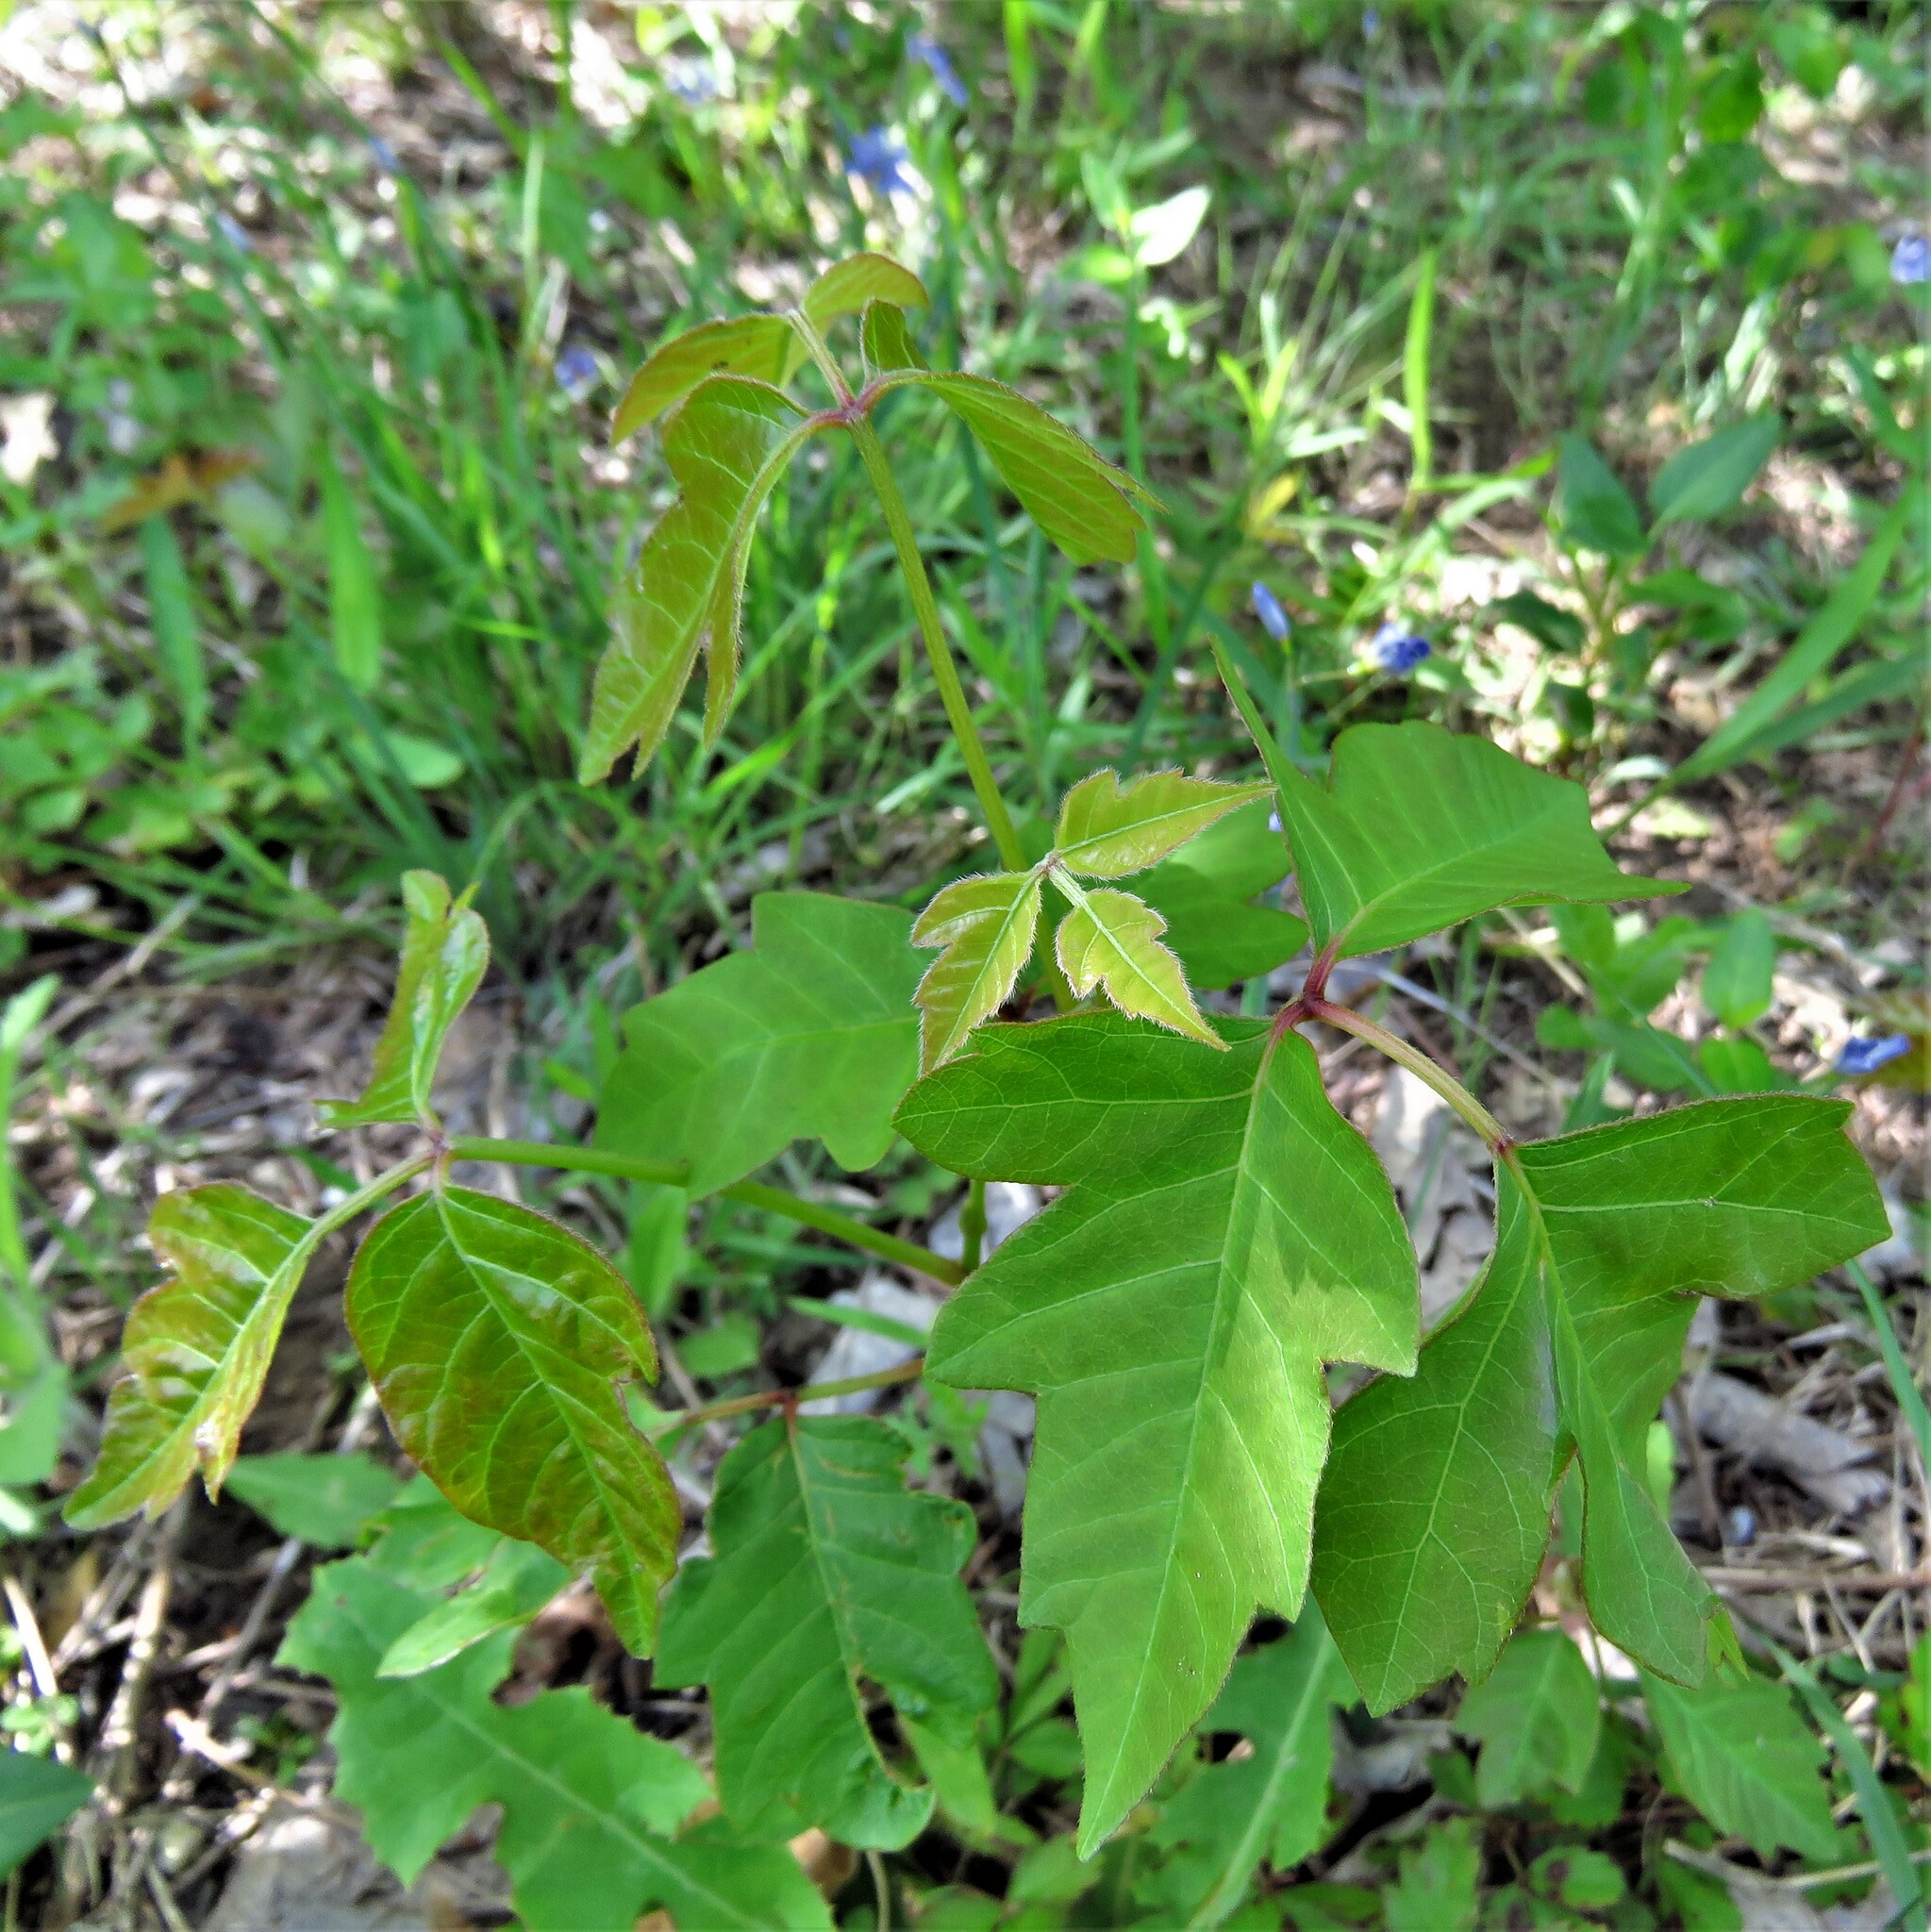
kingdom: Plantae
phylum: Tracheophyta
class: Magnoliopsida
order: Sapindales
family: Anacardiaceae
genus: Toxicodendron
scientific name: Toxicodendron radicans
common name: Poison ivy
